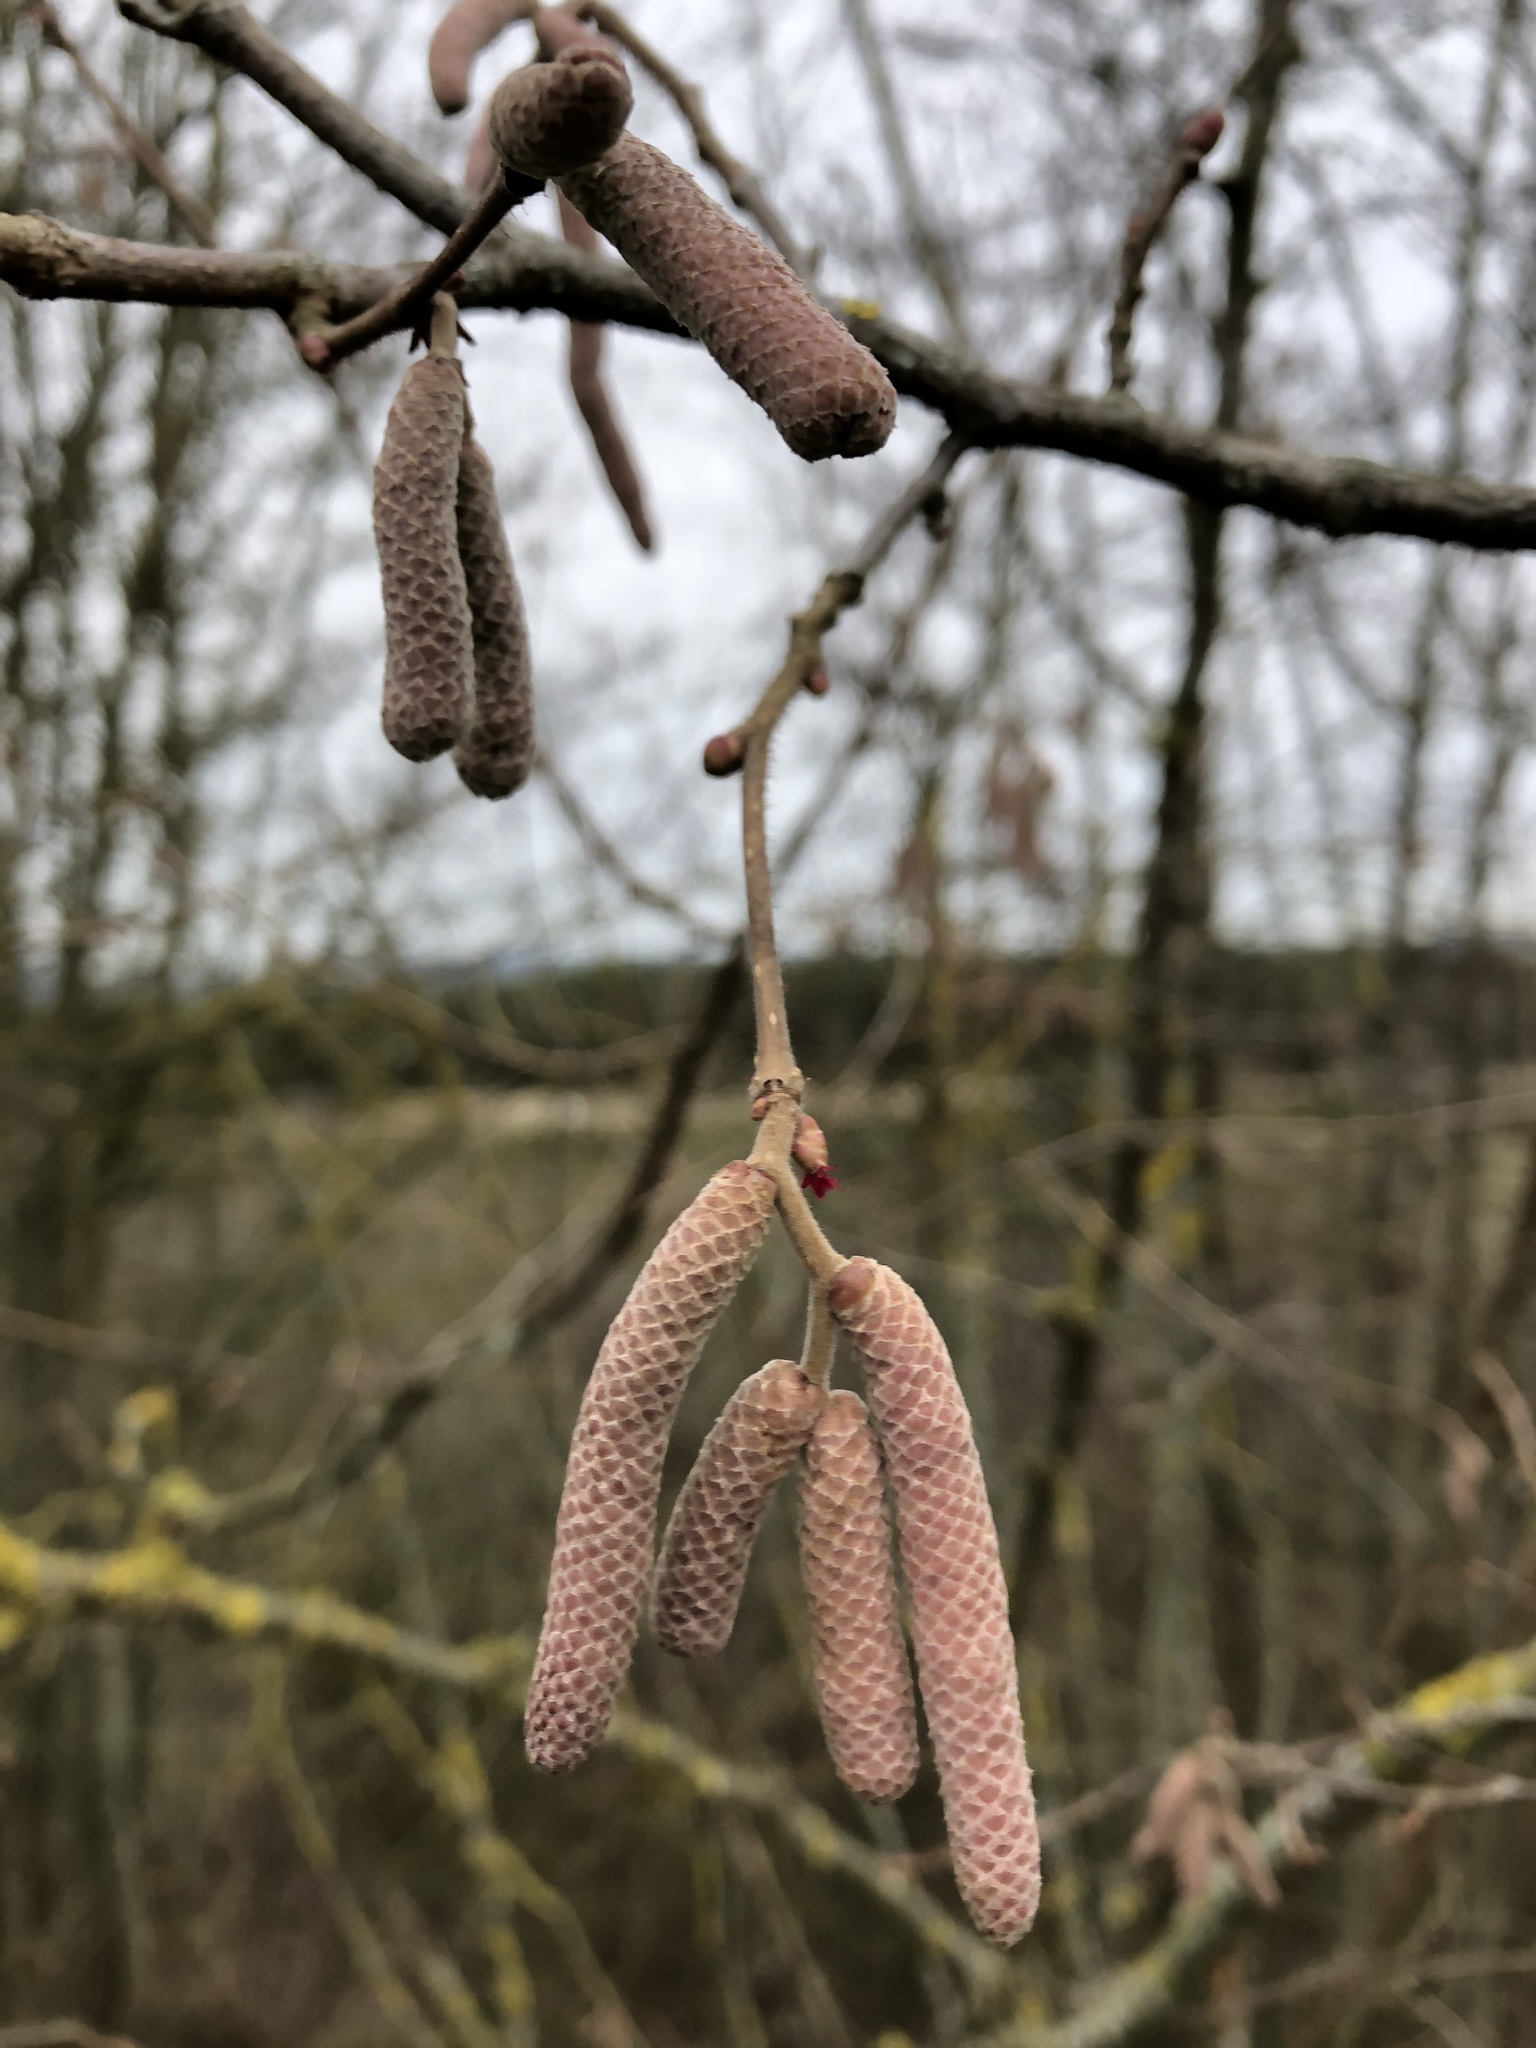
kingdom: Plantae
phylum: Tracheophyta
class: Magnoliopsida
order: Fagales
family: Betulaceae
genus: Corylus
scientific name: Corylus avellana
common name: European hazel
